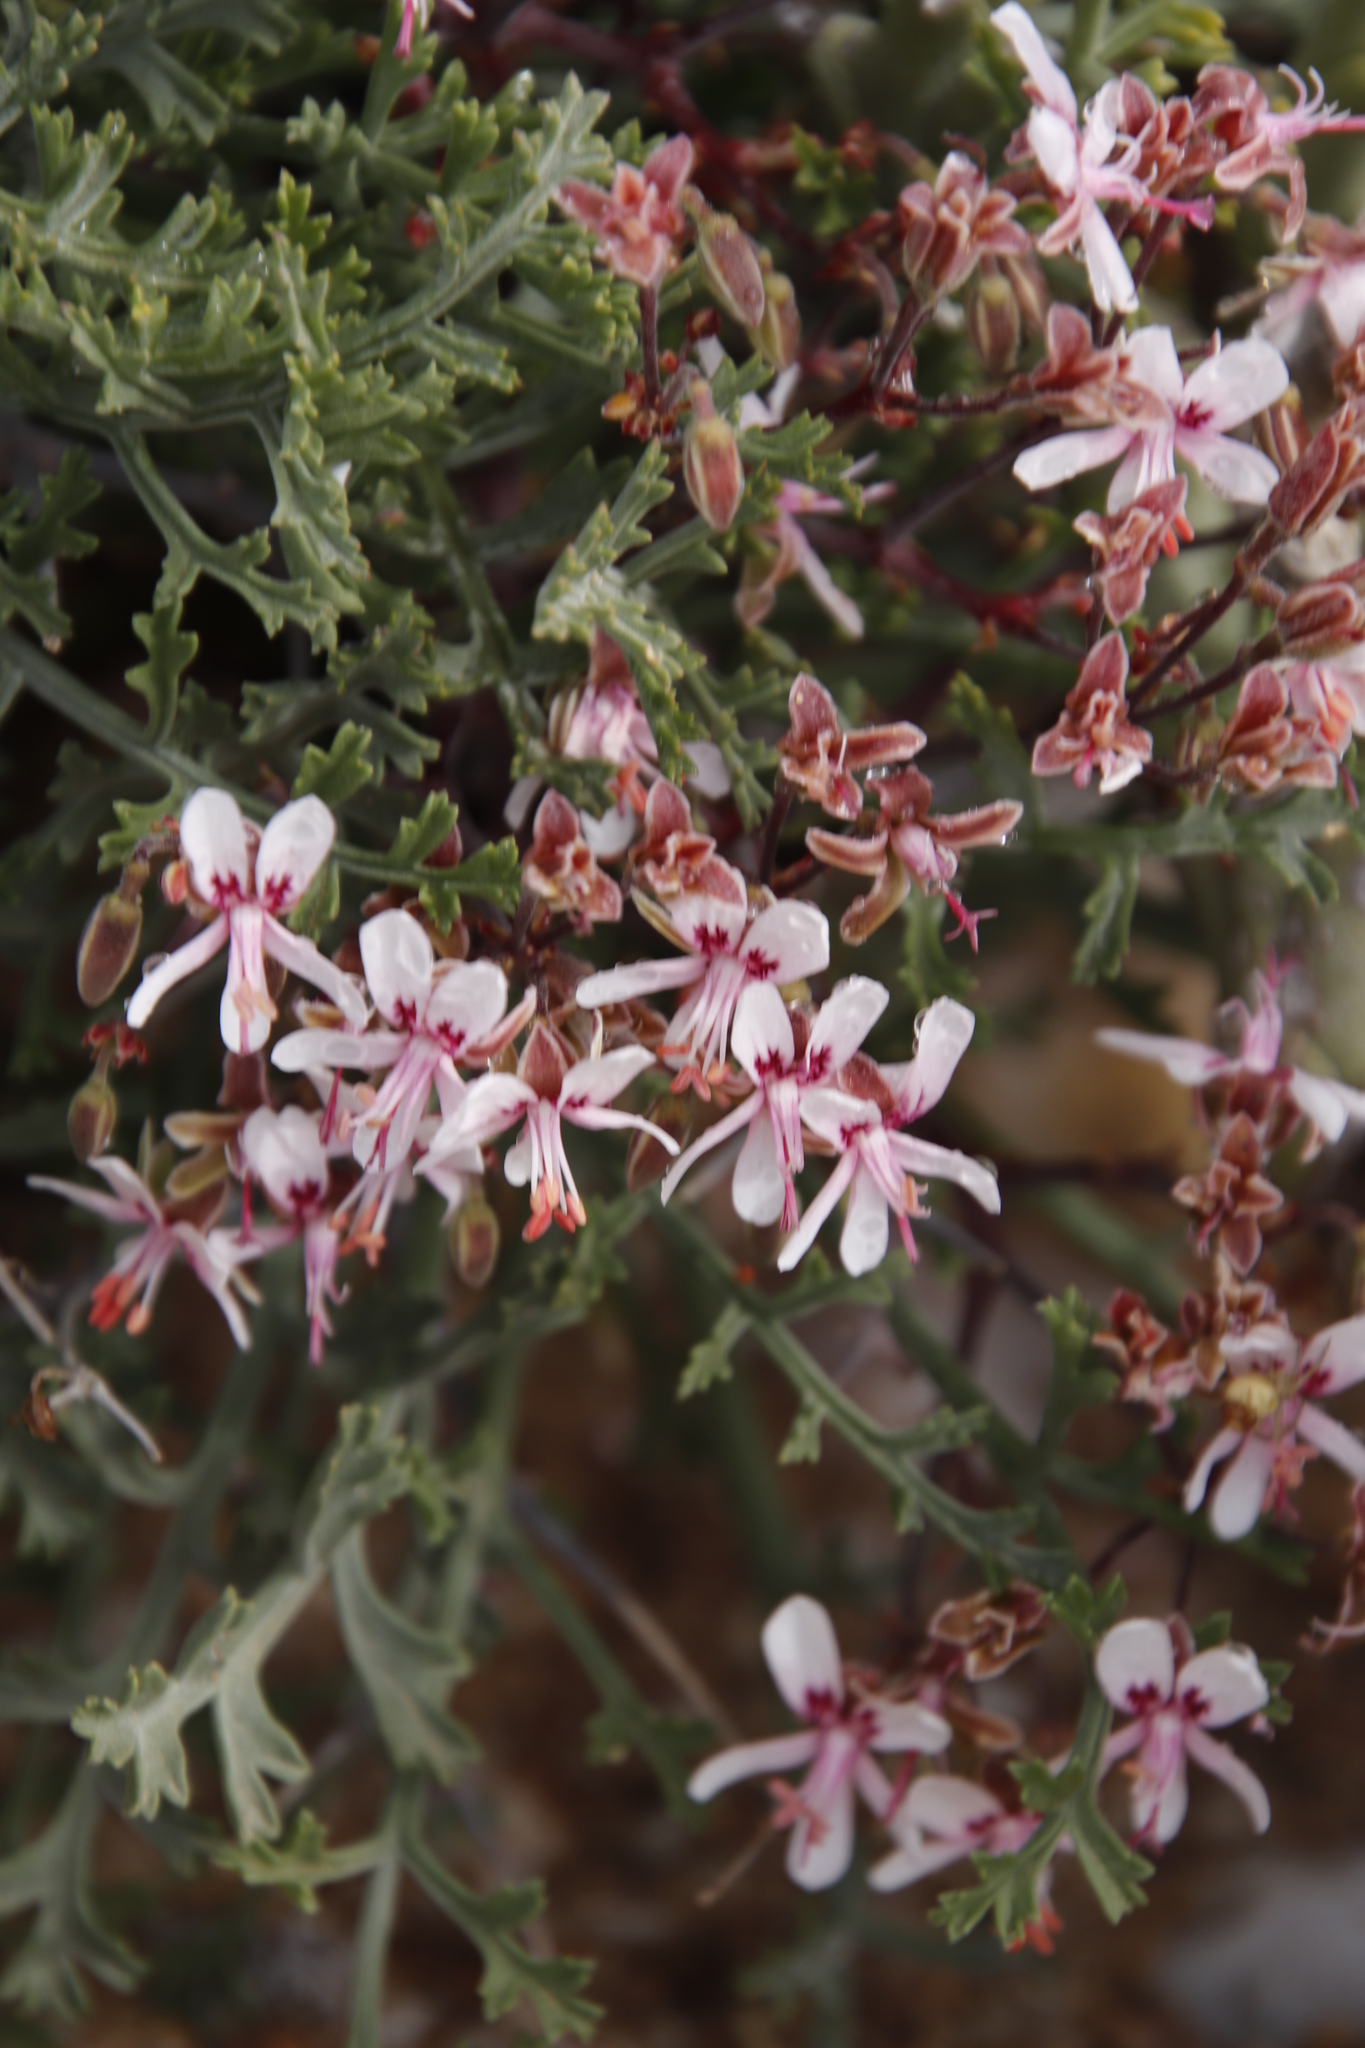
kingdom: Plantae
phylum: Tracheophyta
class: Magnoliopsida
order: Geraniales
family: Geraniaceae
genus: Pelargonium
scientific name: Pelargonium crithmifolium
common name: Samphire-leaf pelargonium
